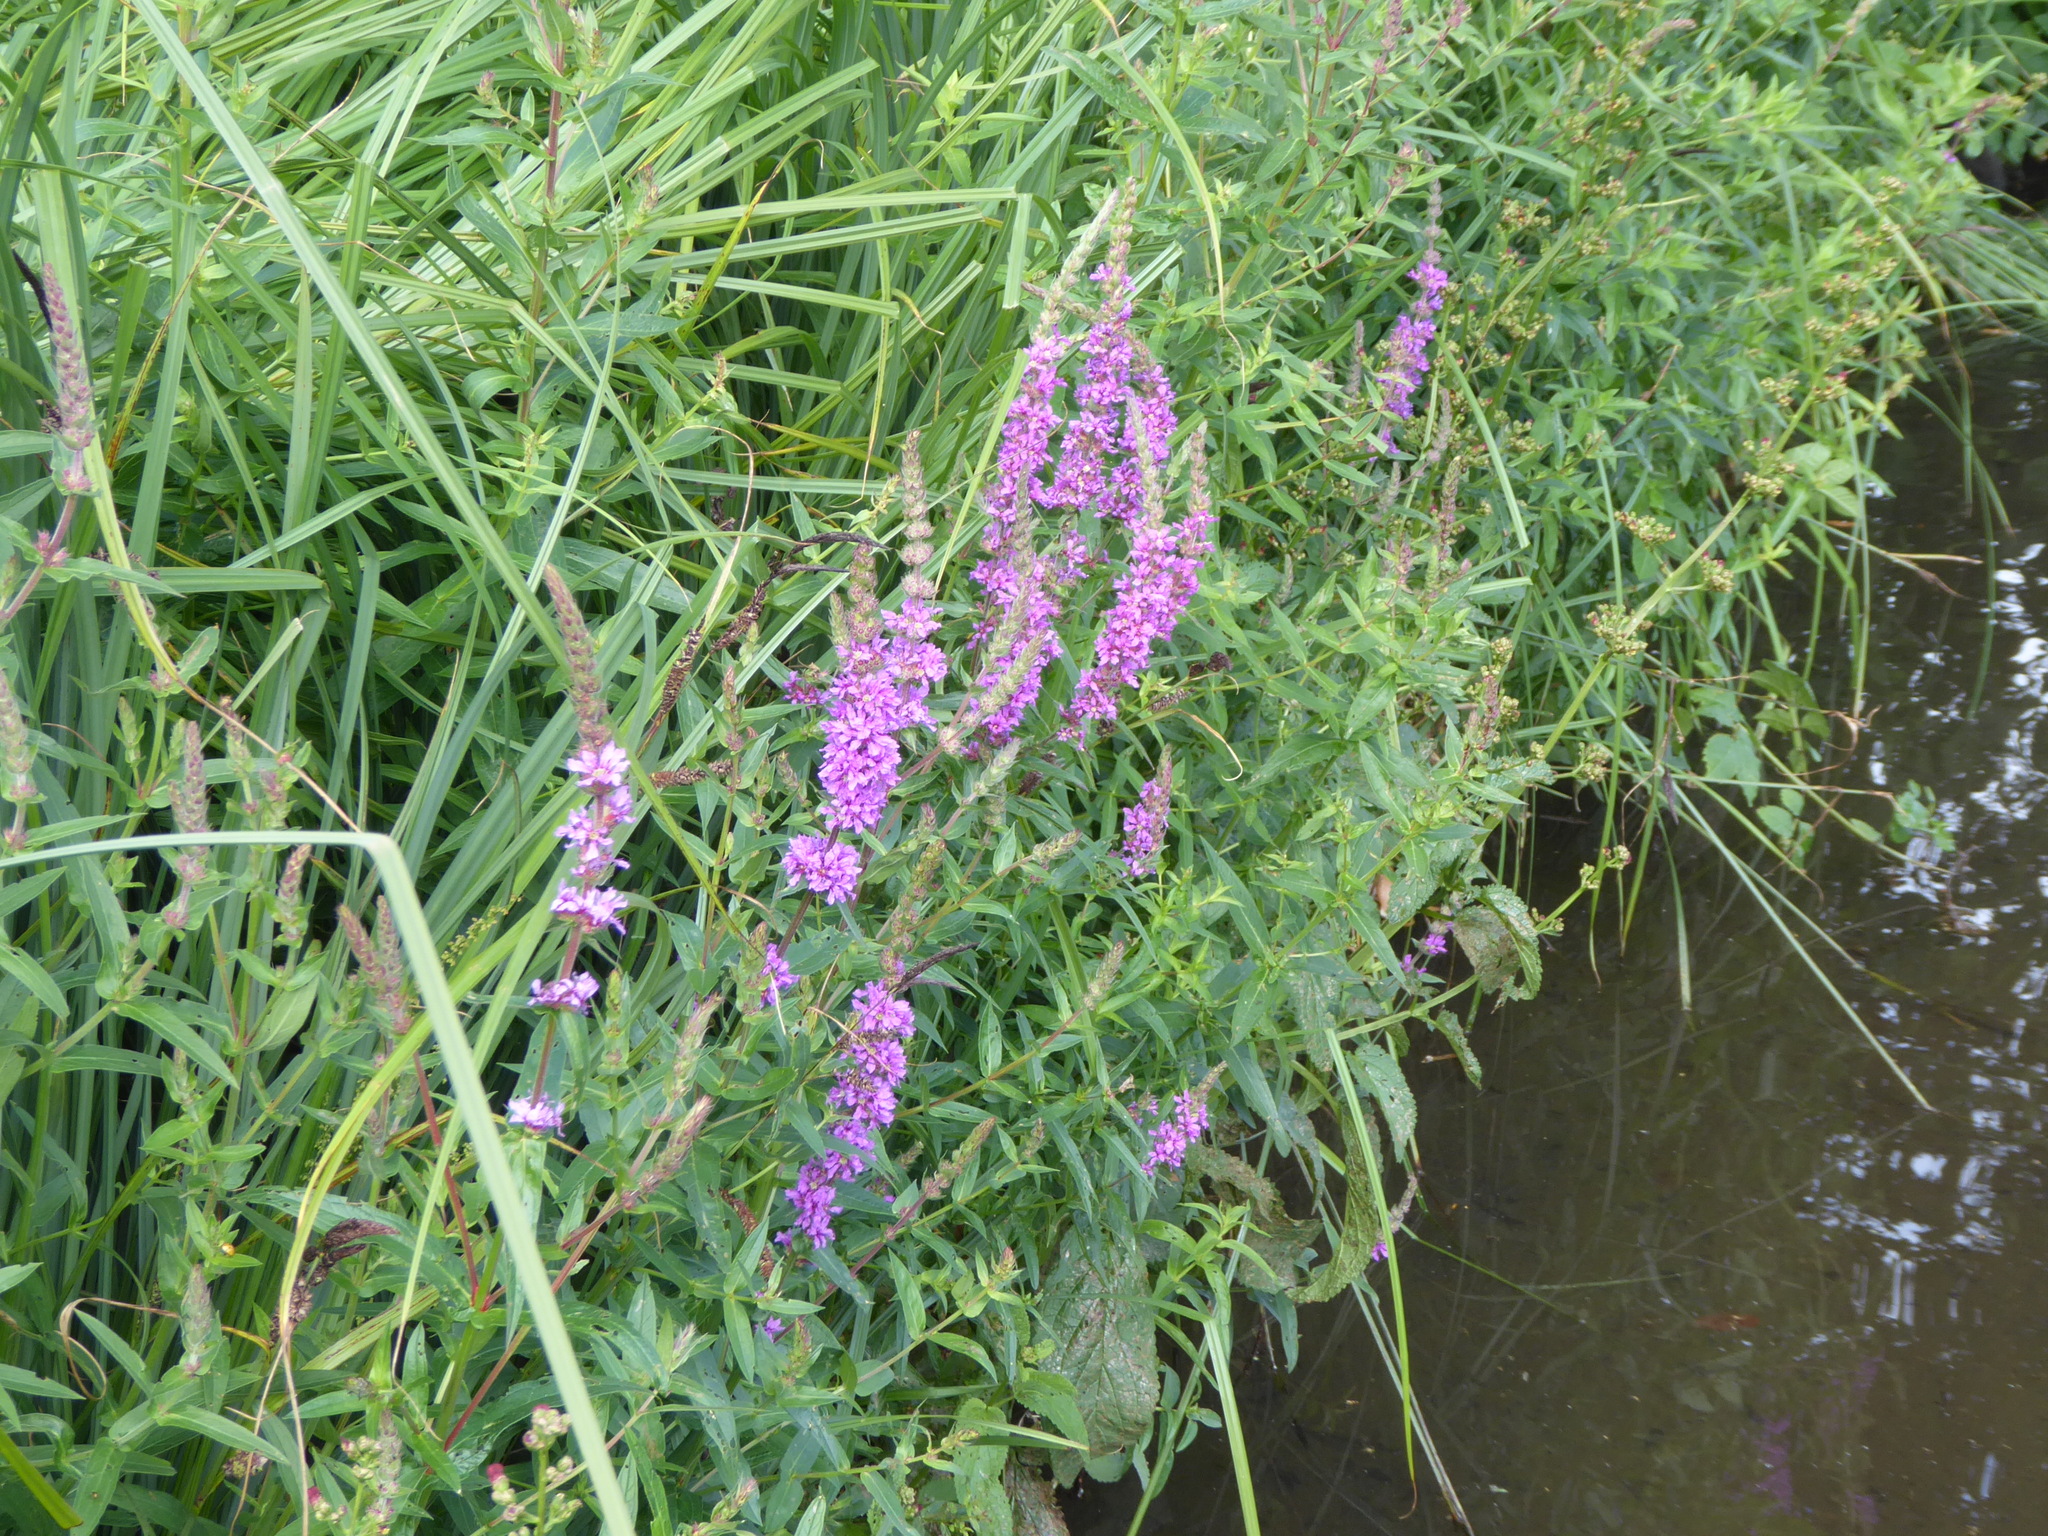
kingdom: Plantae
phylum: Tracheophyta
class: Magnoliopsida
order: Myrtales
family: Lythraceae
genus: Lythrum
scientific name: Lythrum salicaria
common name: Purple loosestrife
